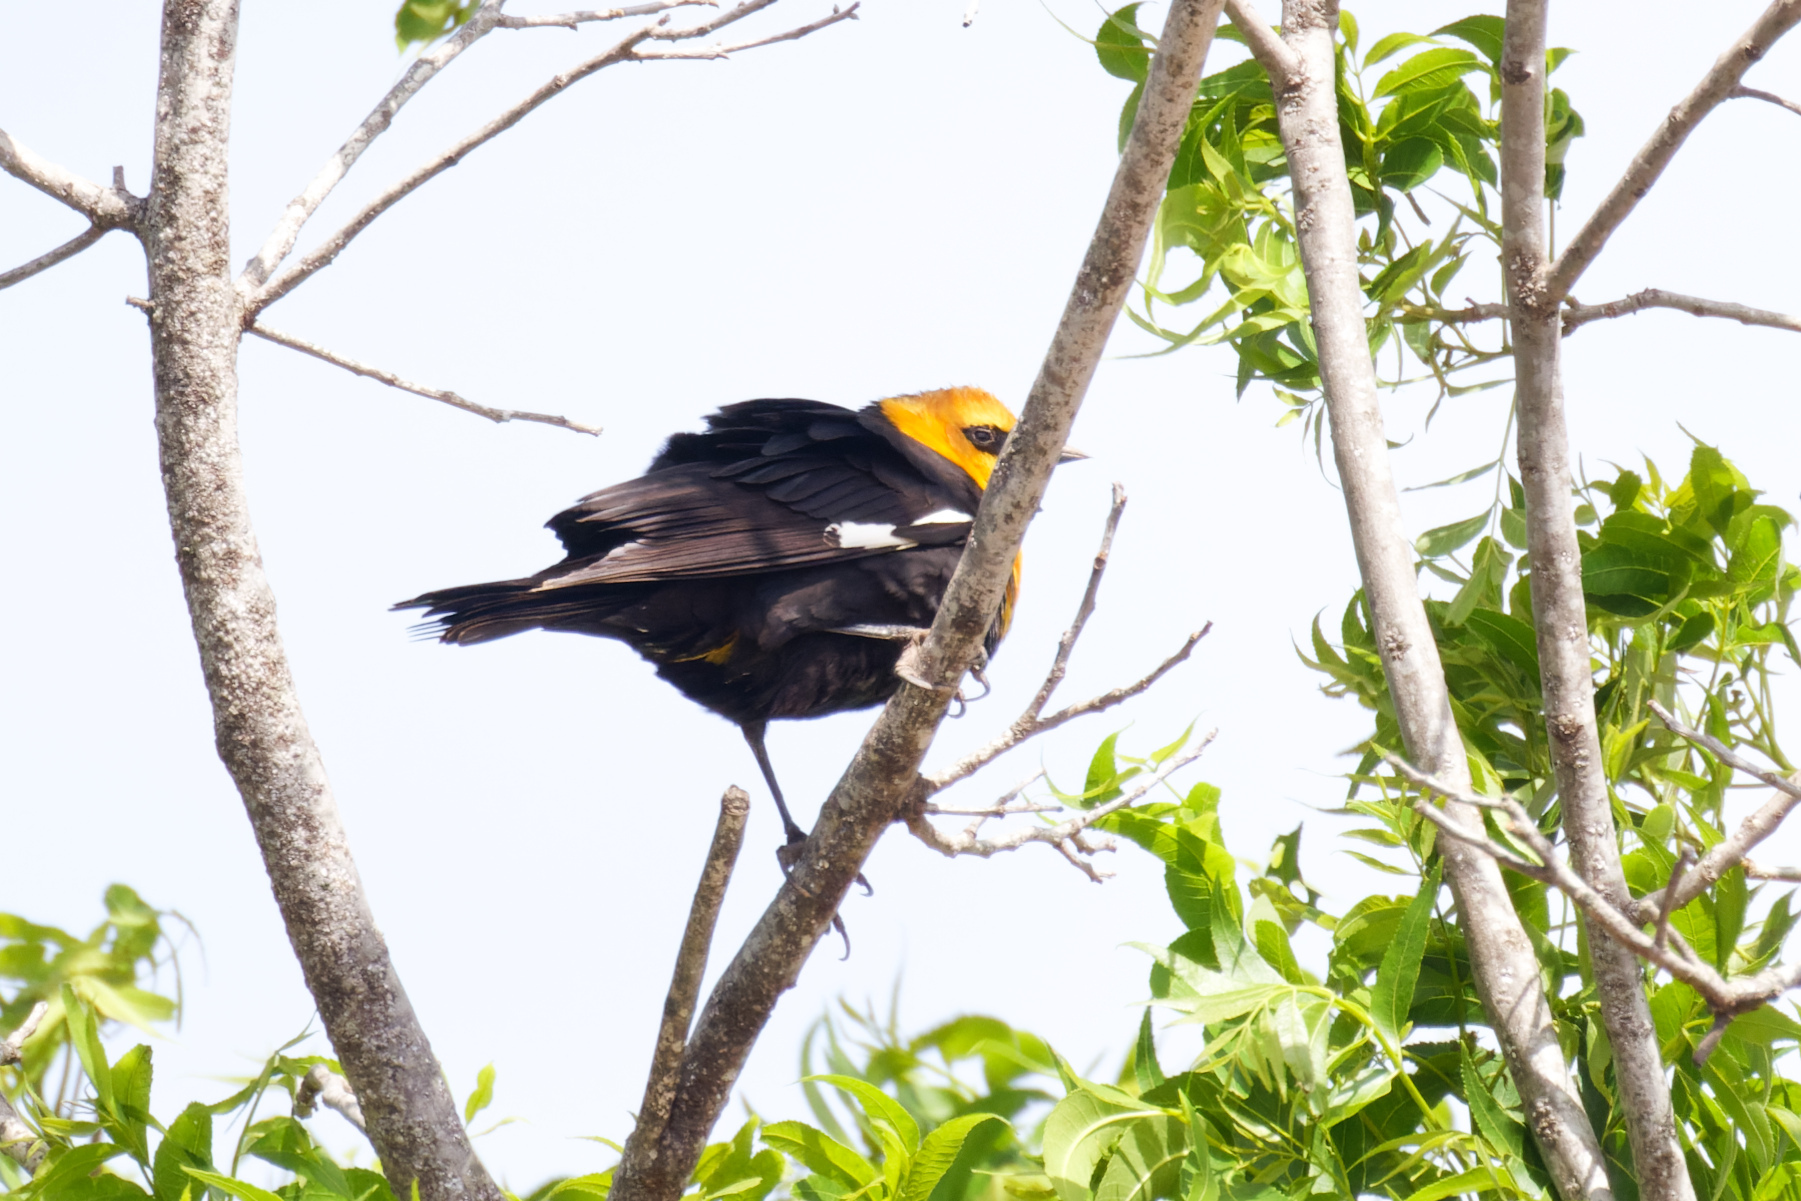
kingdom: Animalia
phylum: Chordata
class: Aves
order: Passeriformes
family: Icteridae
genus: Xanthocephalus
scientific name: Xanthocephalus xanthocephalus
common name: Yellow-headed blackbird
